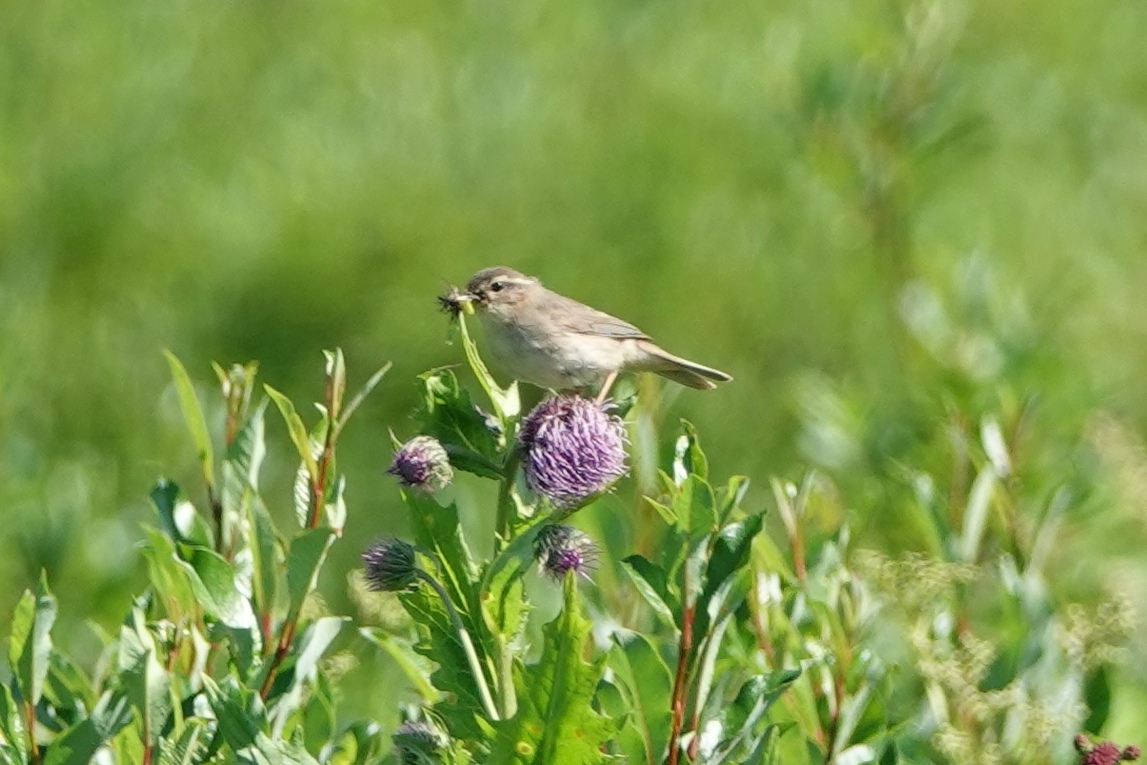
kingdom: Animalia
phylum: Chordata
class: Aves
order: Passeriformes
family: Phylloscopidae
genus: Phylloscopus
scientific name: Phylloscopus fuscatus
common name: Dusky warbler
